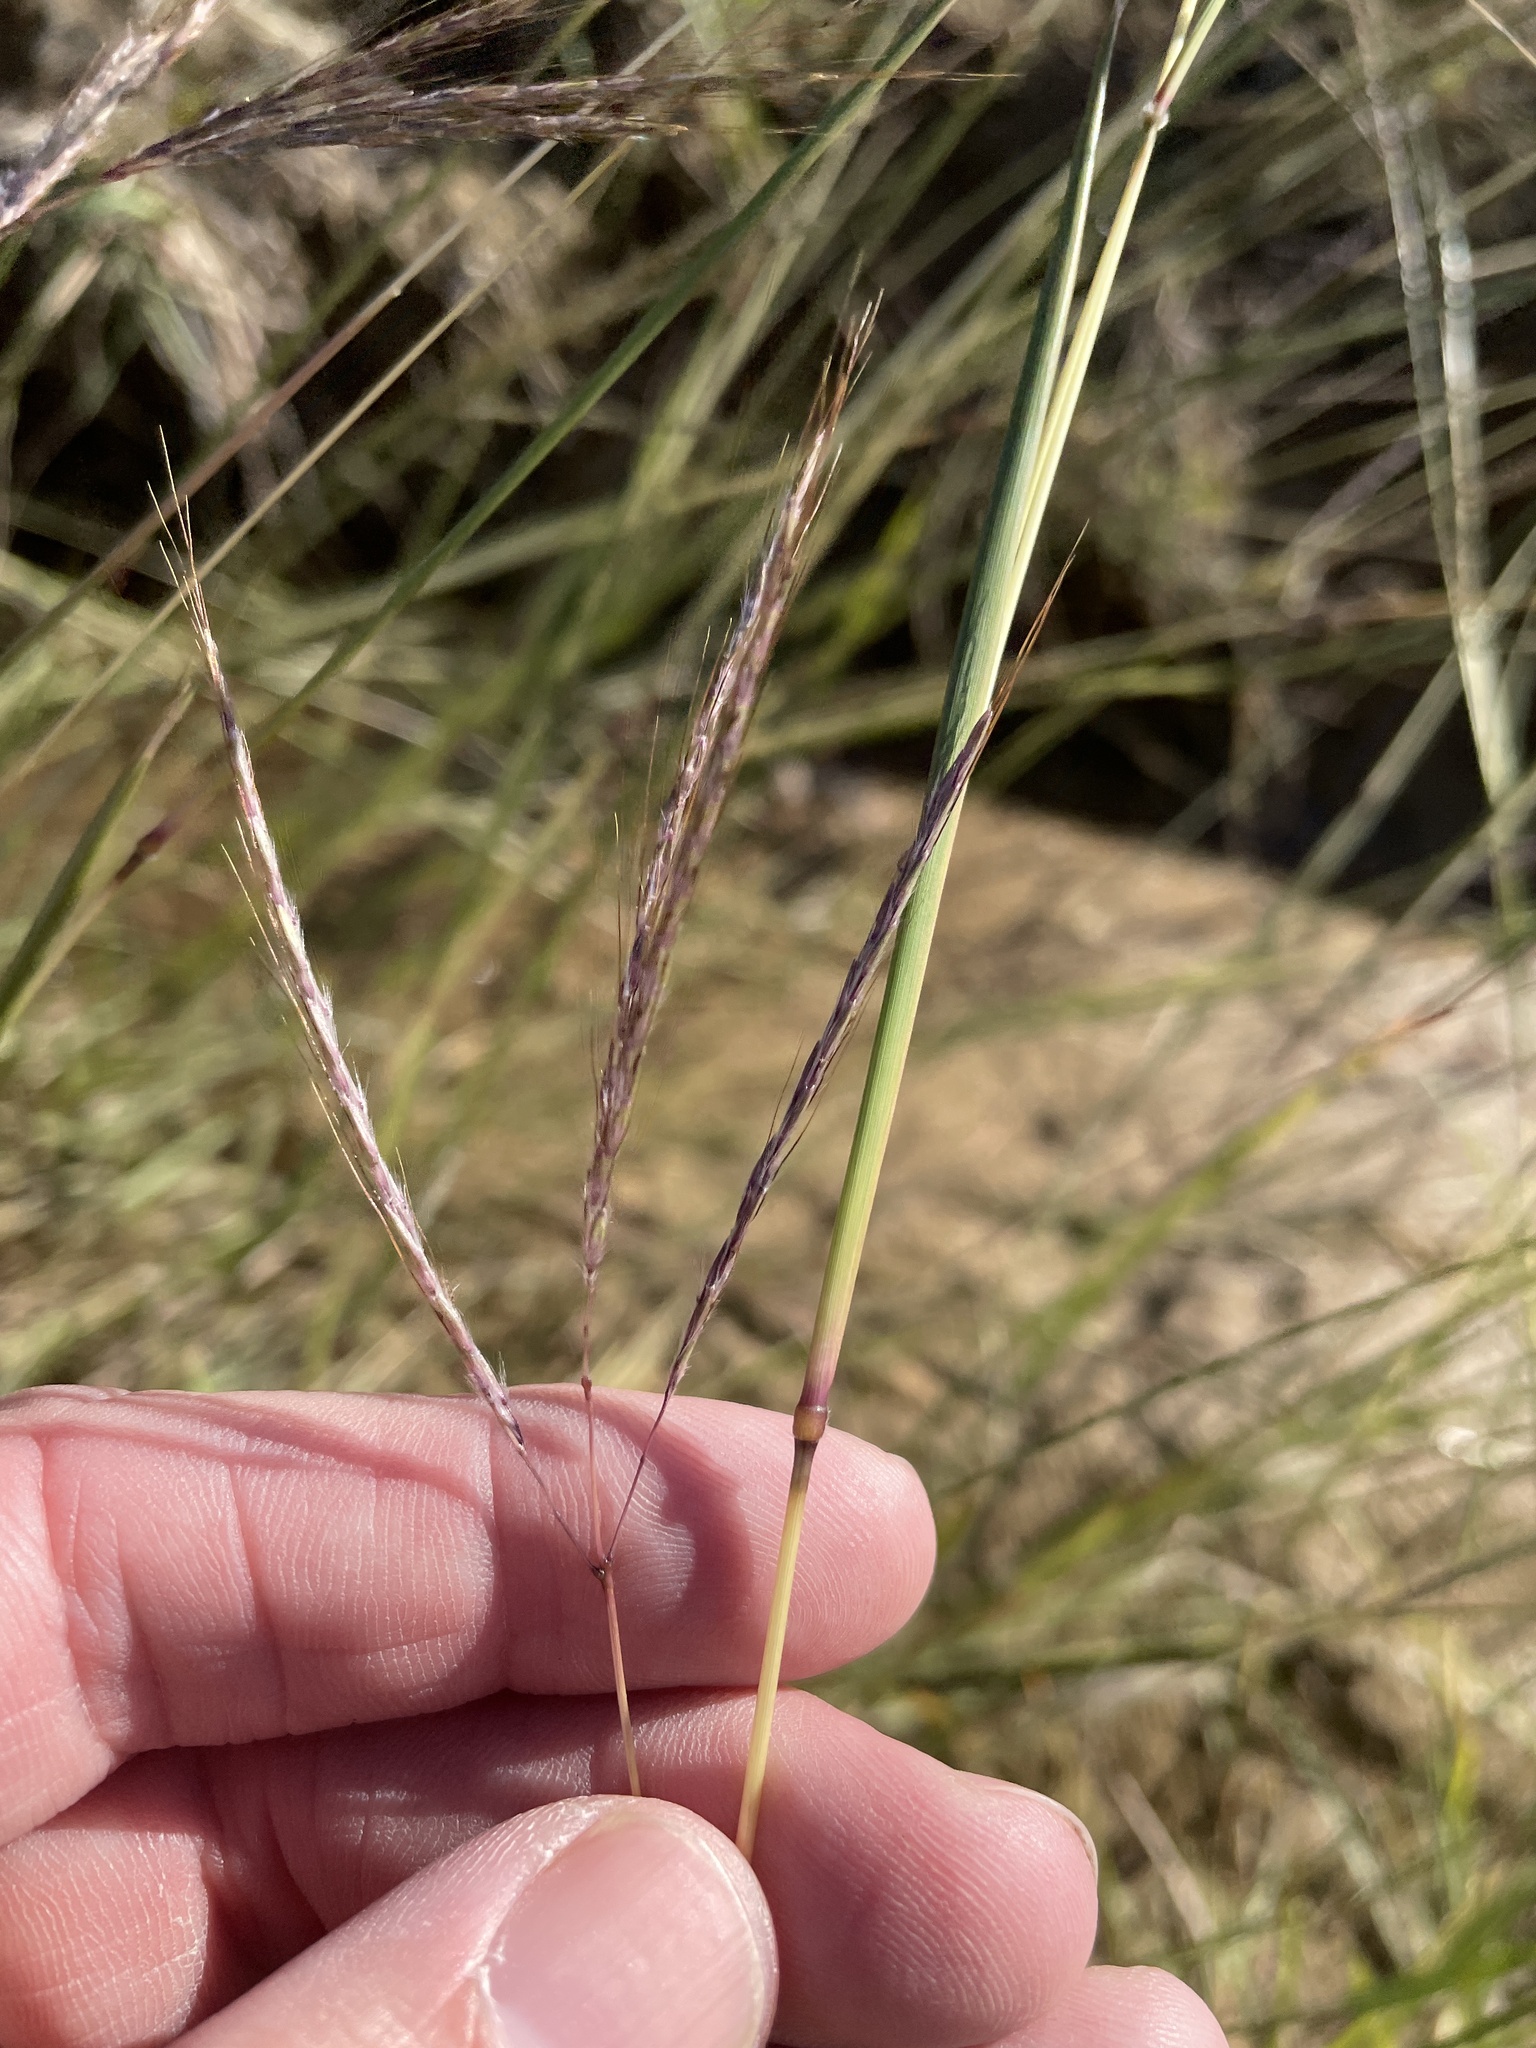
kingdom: Plantae
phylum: Tracheophyta
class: Liliopsida
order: Poales
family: Poaceae
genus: Bothriochloa
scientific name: Bothriochloa ischaemum
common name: Yellow bluestem
